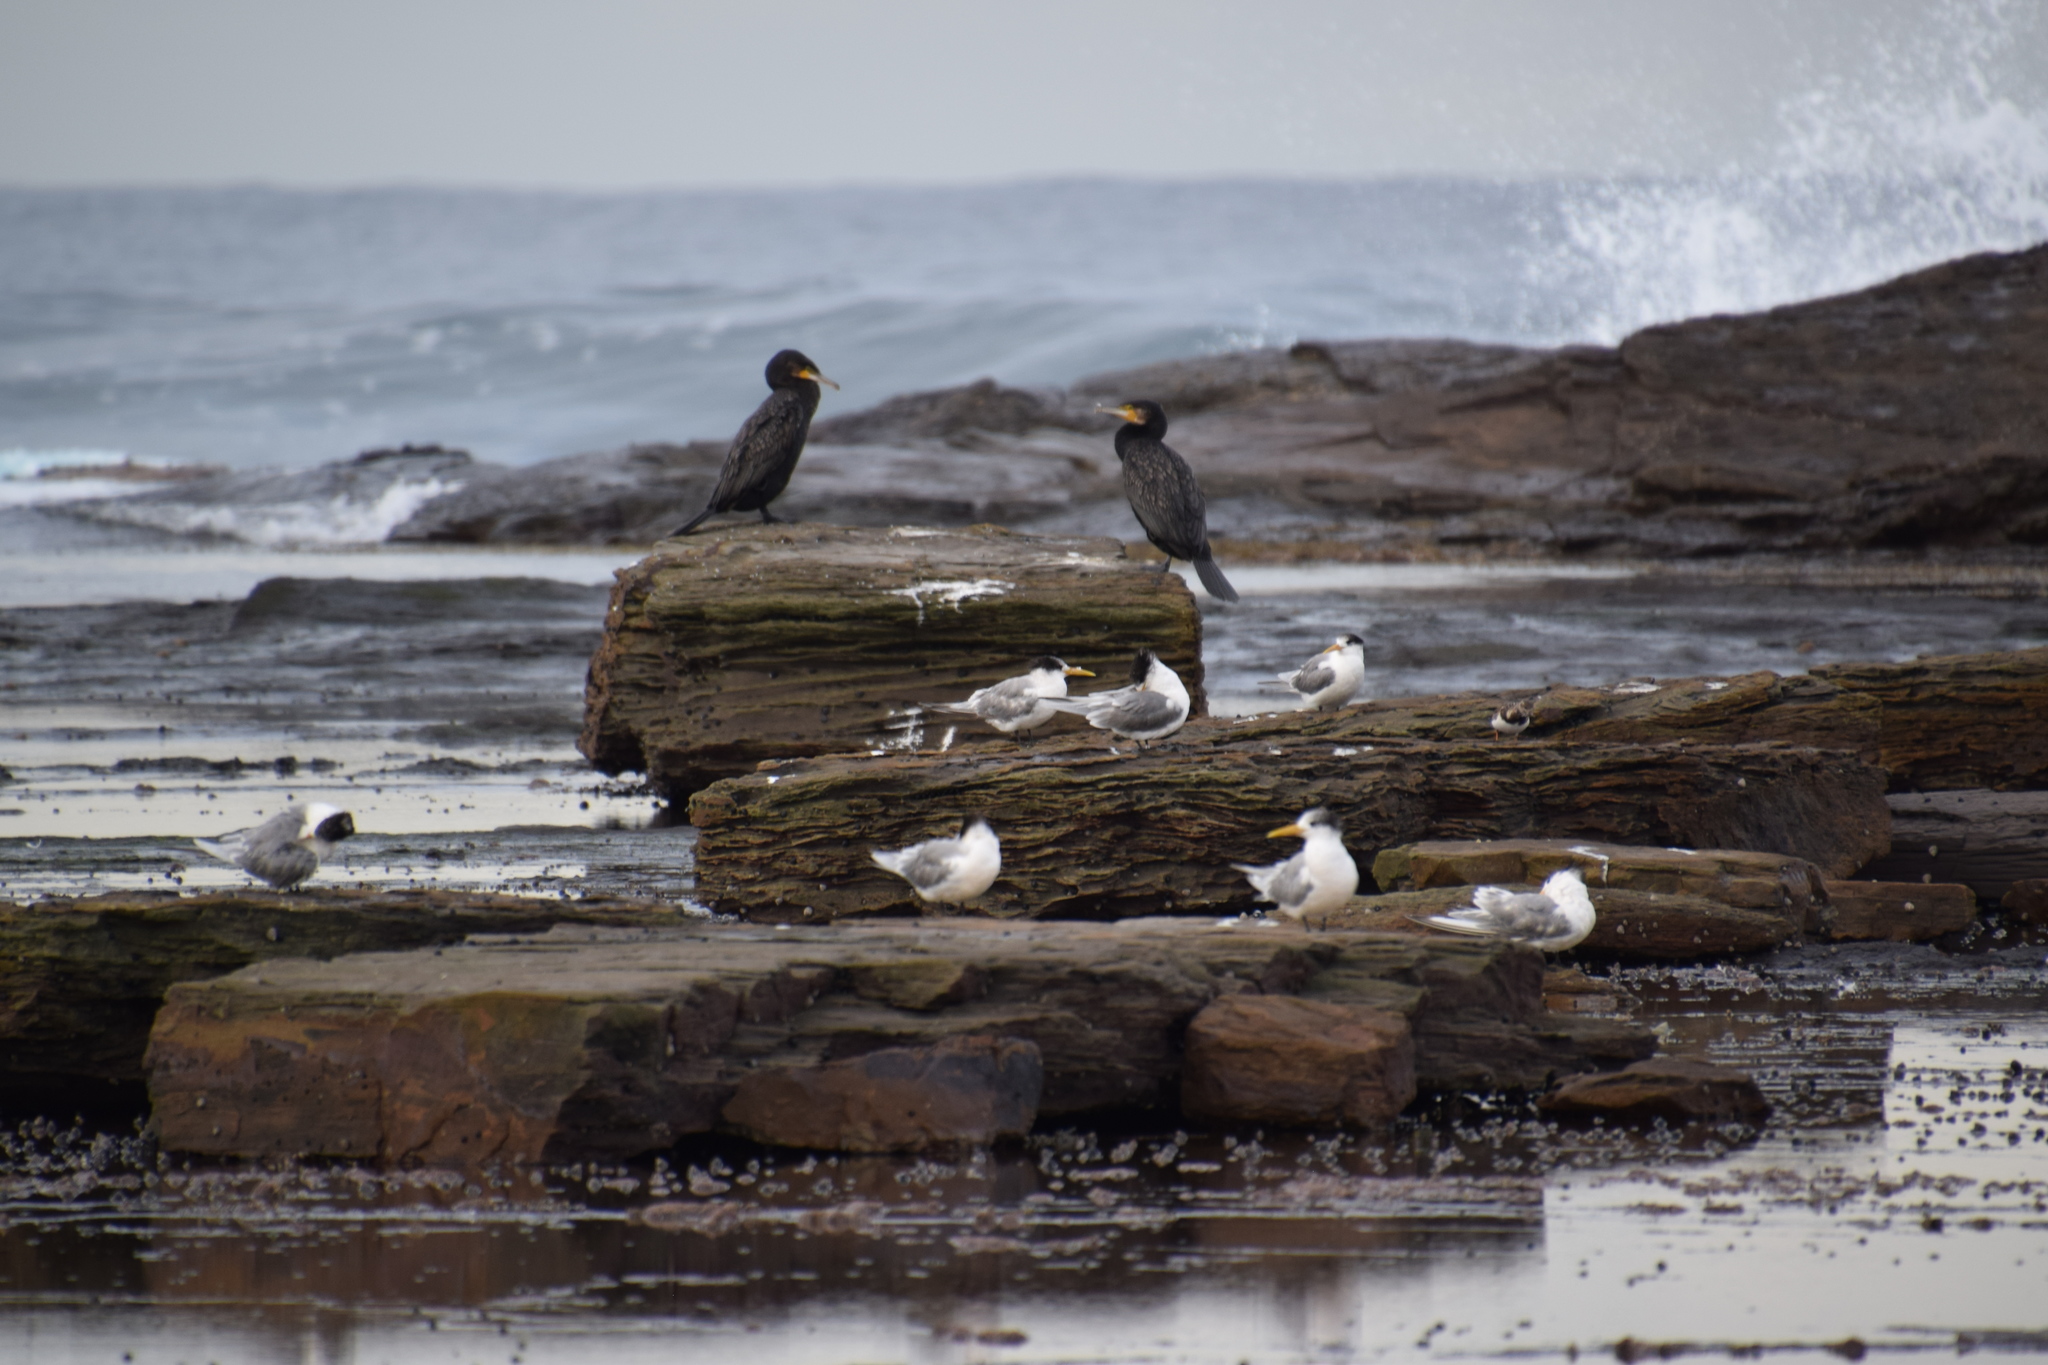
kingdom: Animalia
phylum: Chordata
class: Aves
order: Suliformes
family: Phalacrocoracidae
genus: Phalacrocorax
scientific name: Phalacrocorax carbo
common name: Great cormorant
